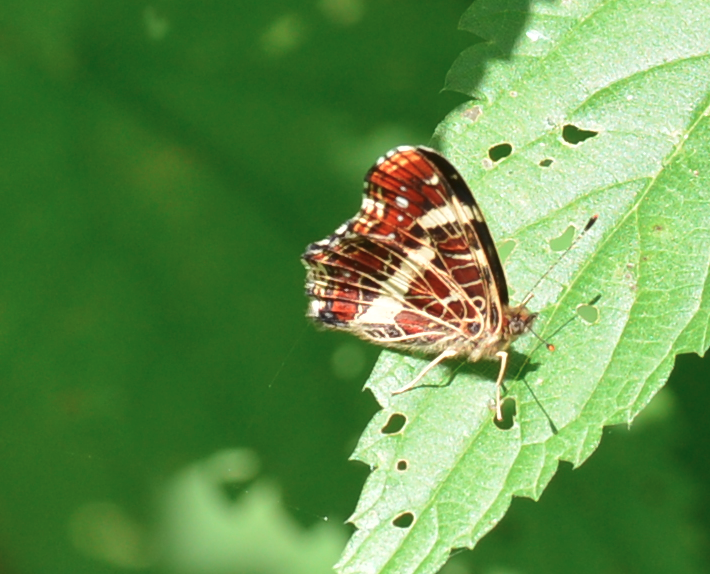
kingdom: Animalia
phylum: Arthropoda
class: Insecta
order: Lepidoptera
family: Nymphalidae
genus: Araschnia
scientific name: Araschnia levana
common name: Map butterfly
